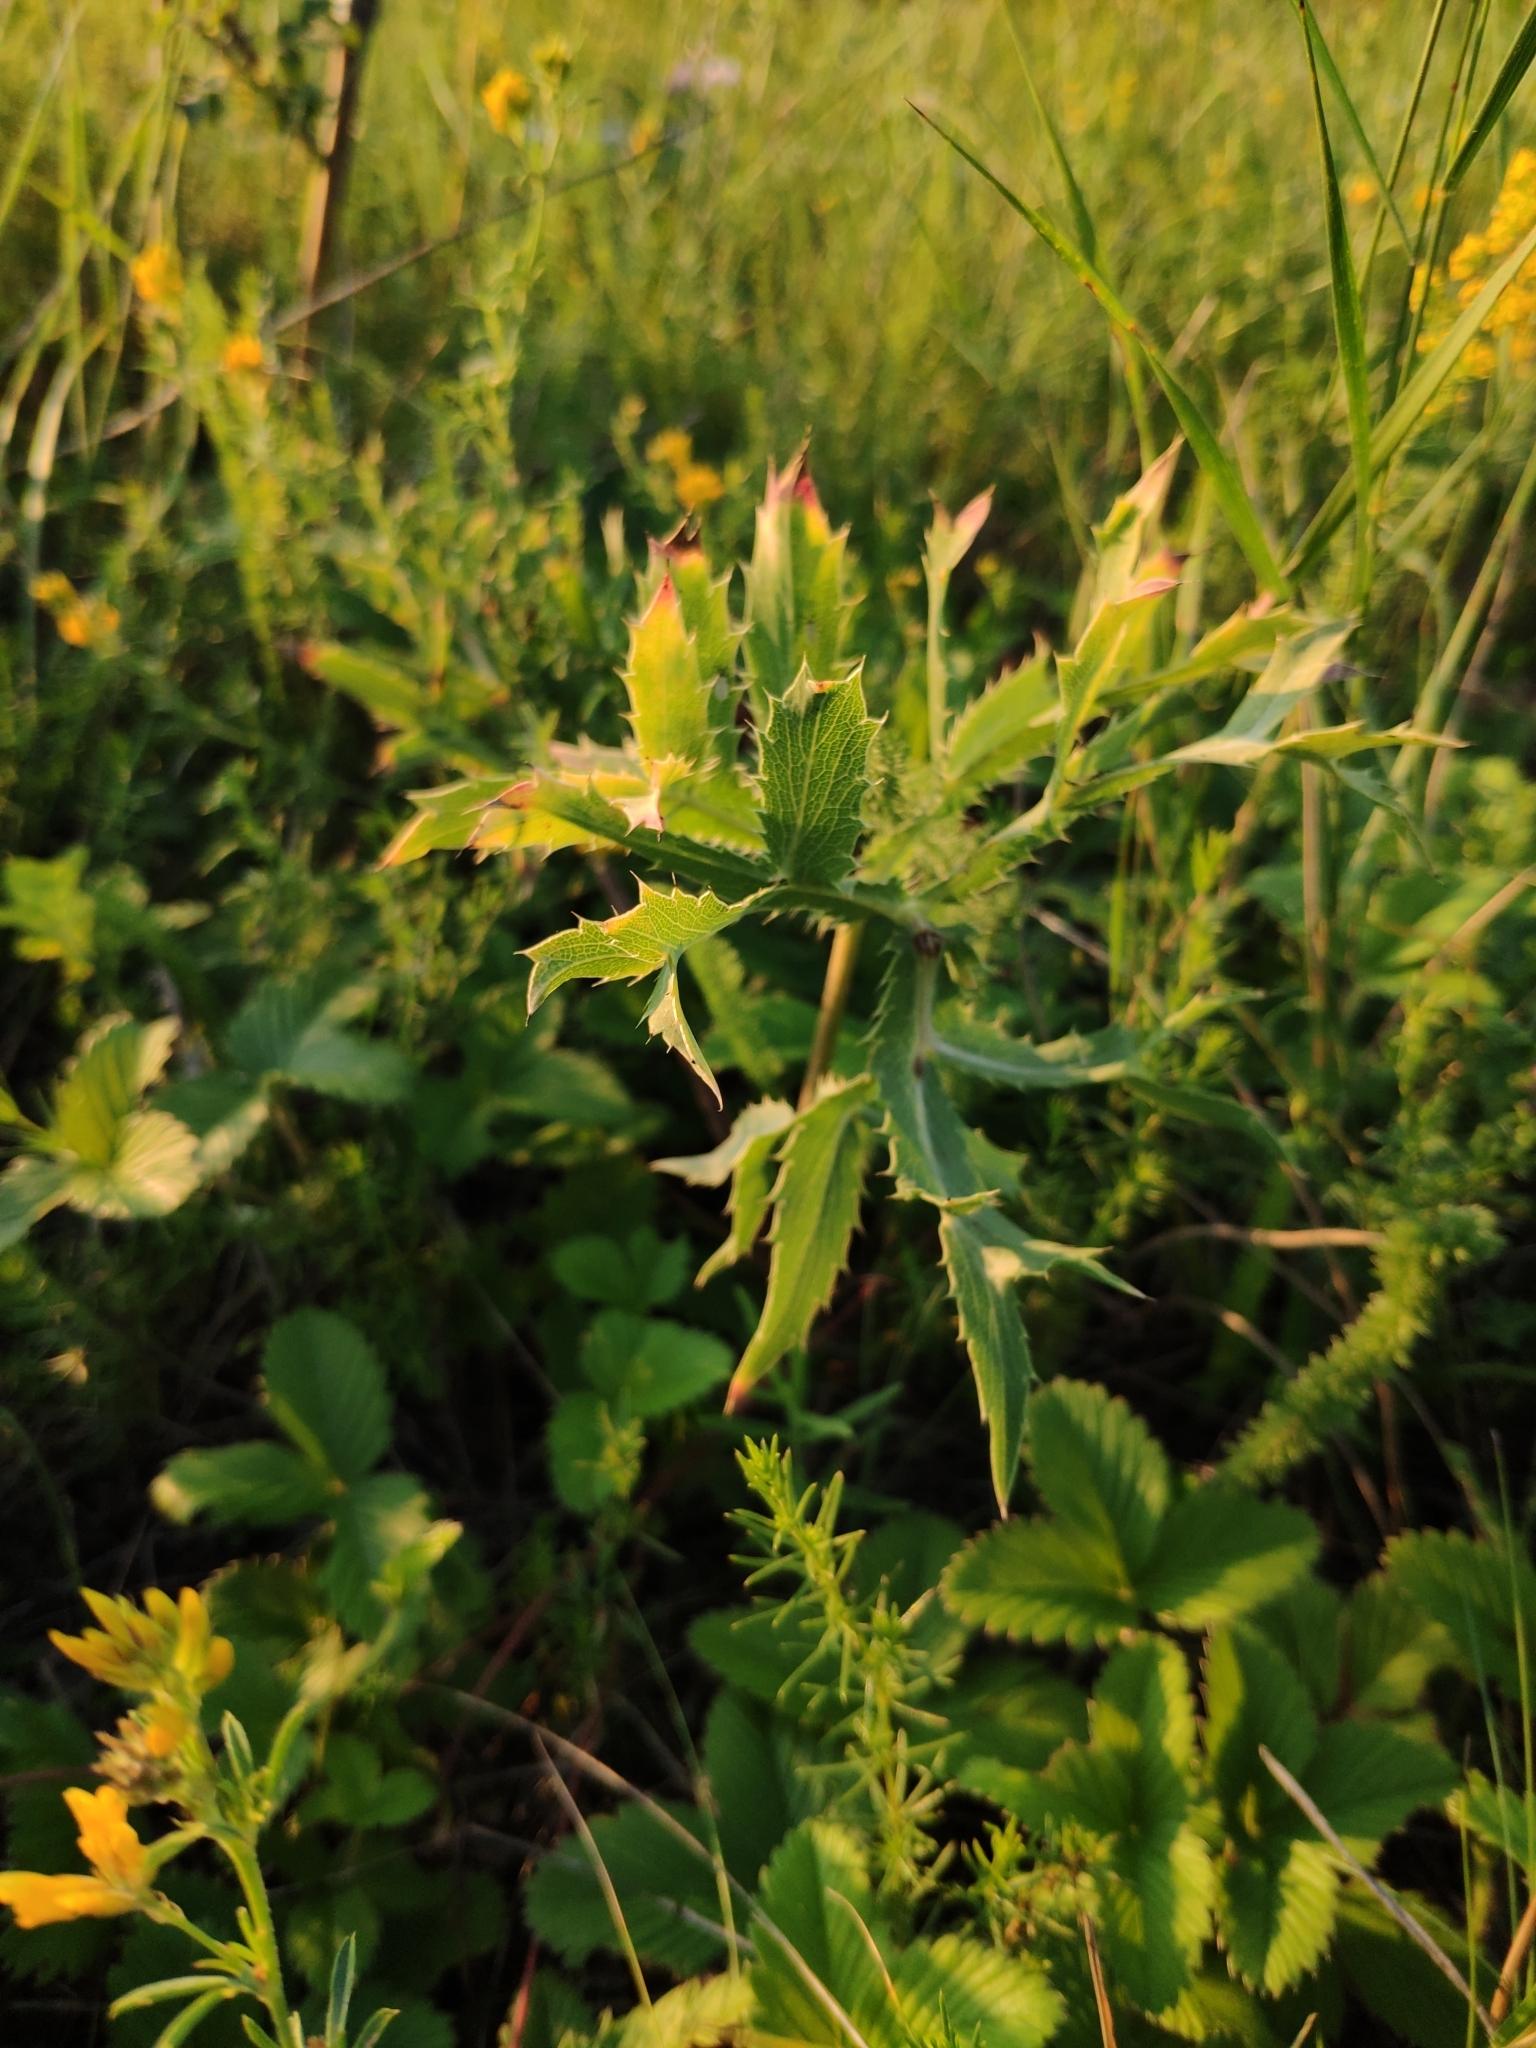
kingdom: Plantae
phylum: Tracheophyta
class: Magnoliopsida
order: Apiales
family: Apiaceae
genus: Eryngium
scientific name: Eryngium campestre
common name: Field eryngo
